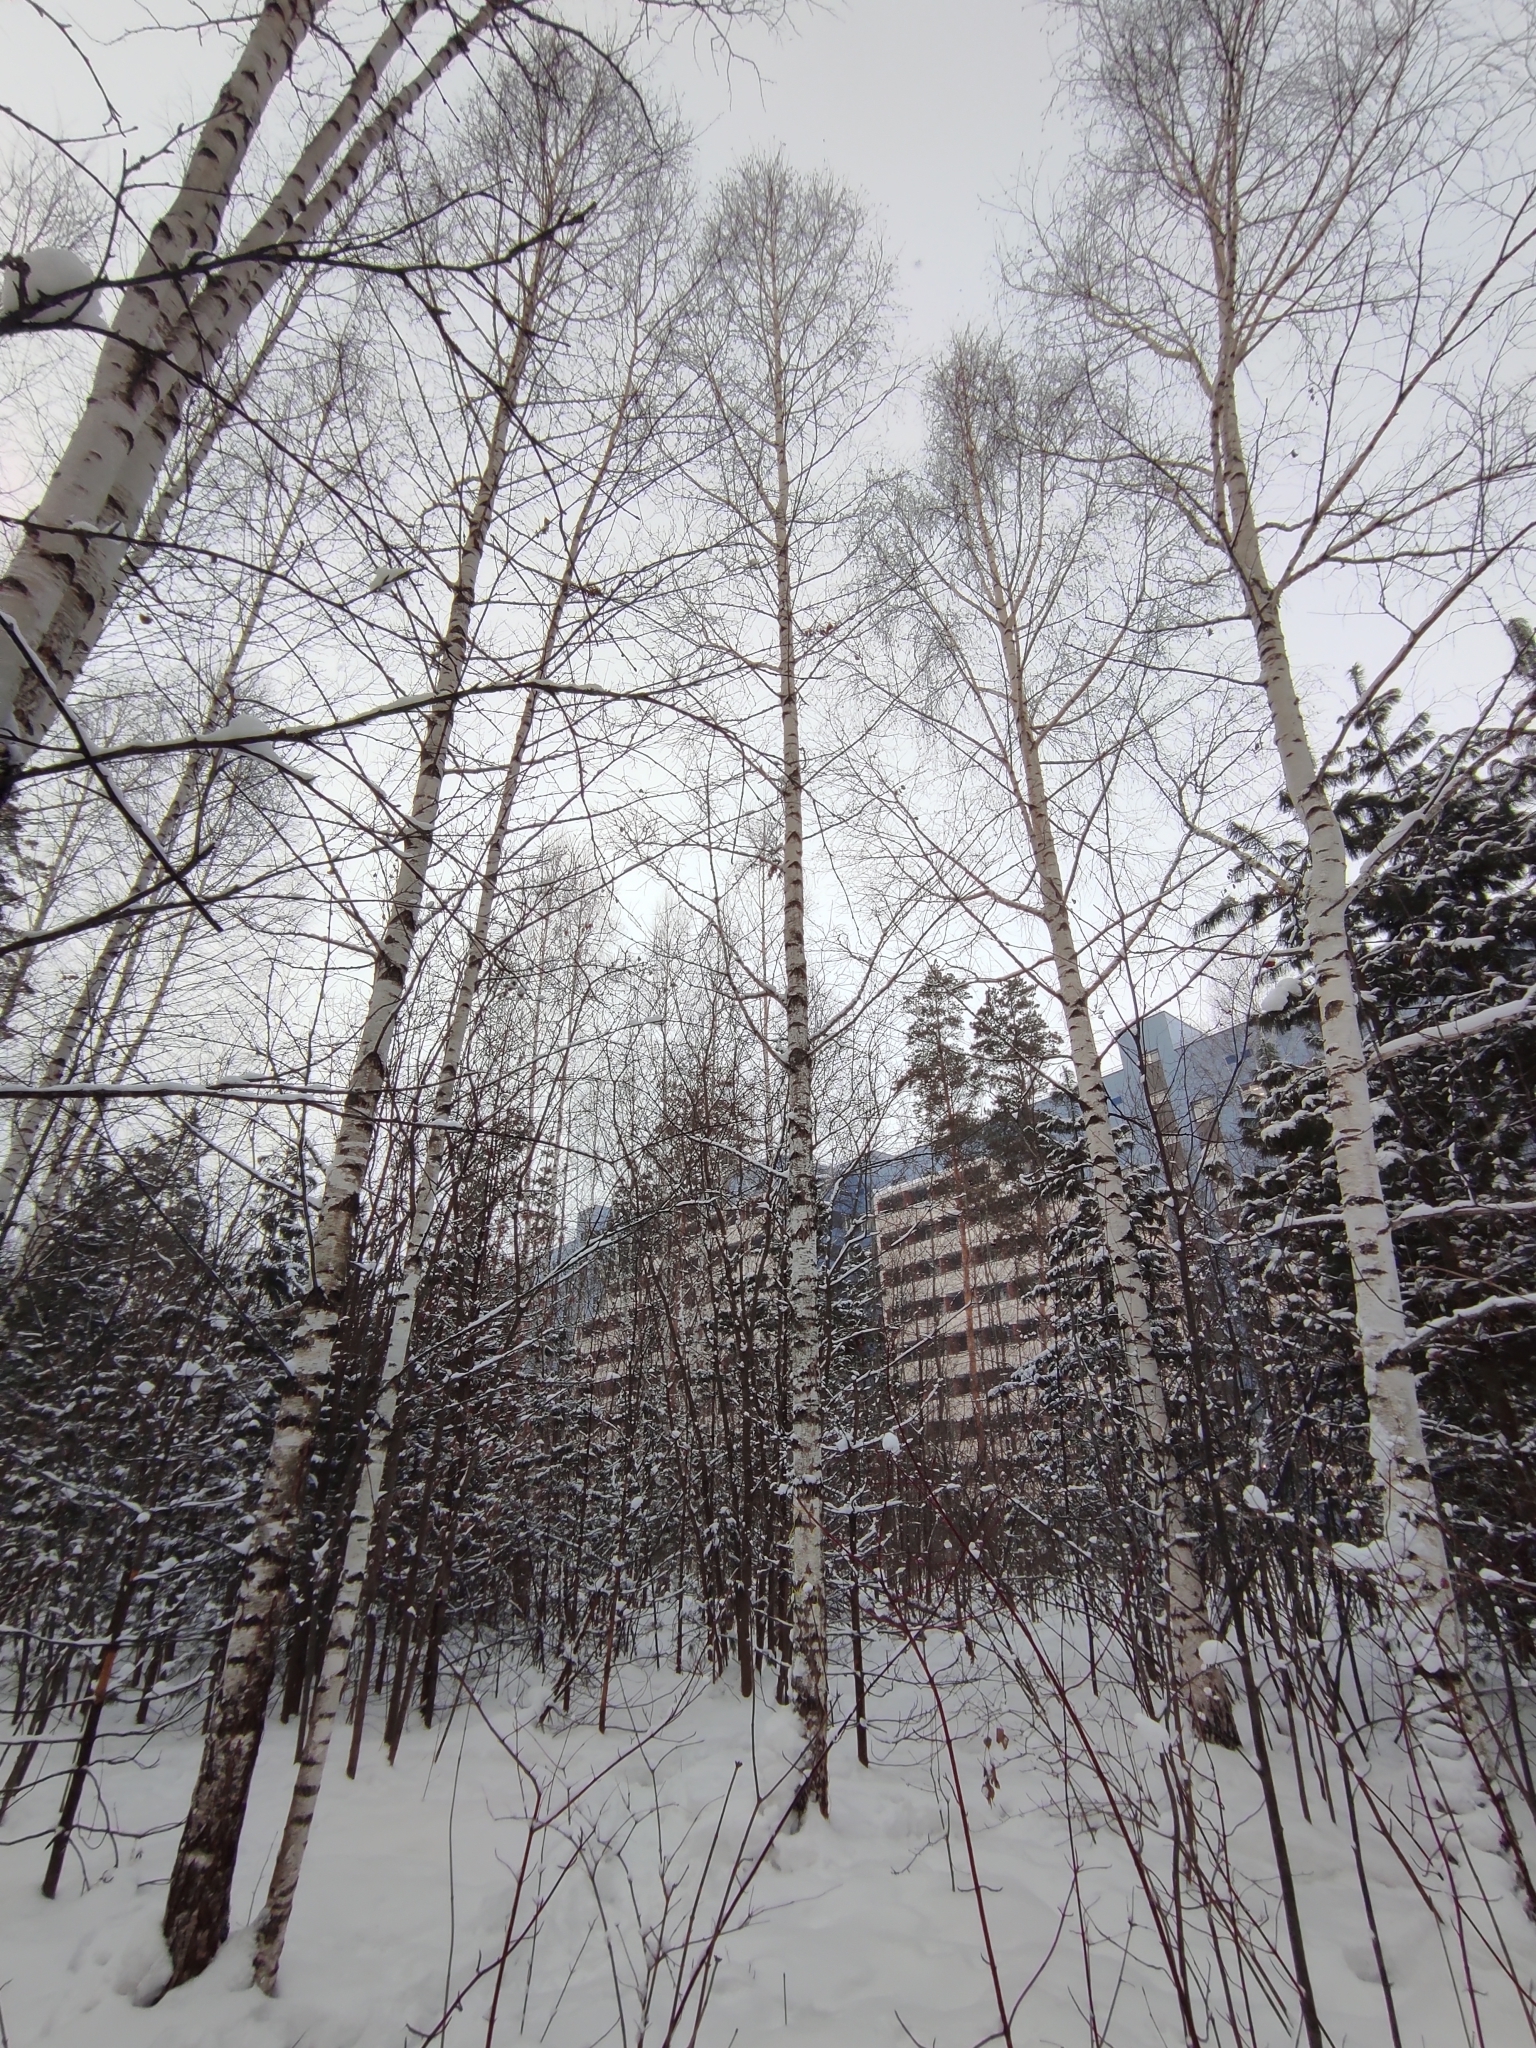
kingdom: Plantae
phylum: Tracheophyta
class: Magnoliopsida
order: Fagales
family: Betulaceae
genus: Betula
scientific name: Betula pendula
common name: Silver birch
